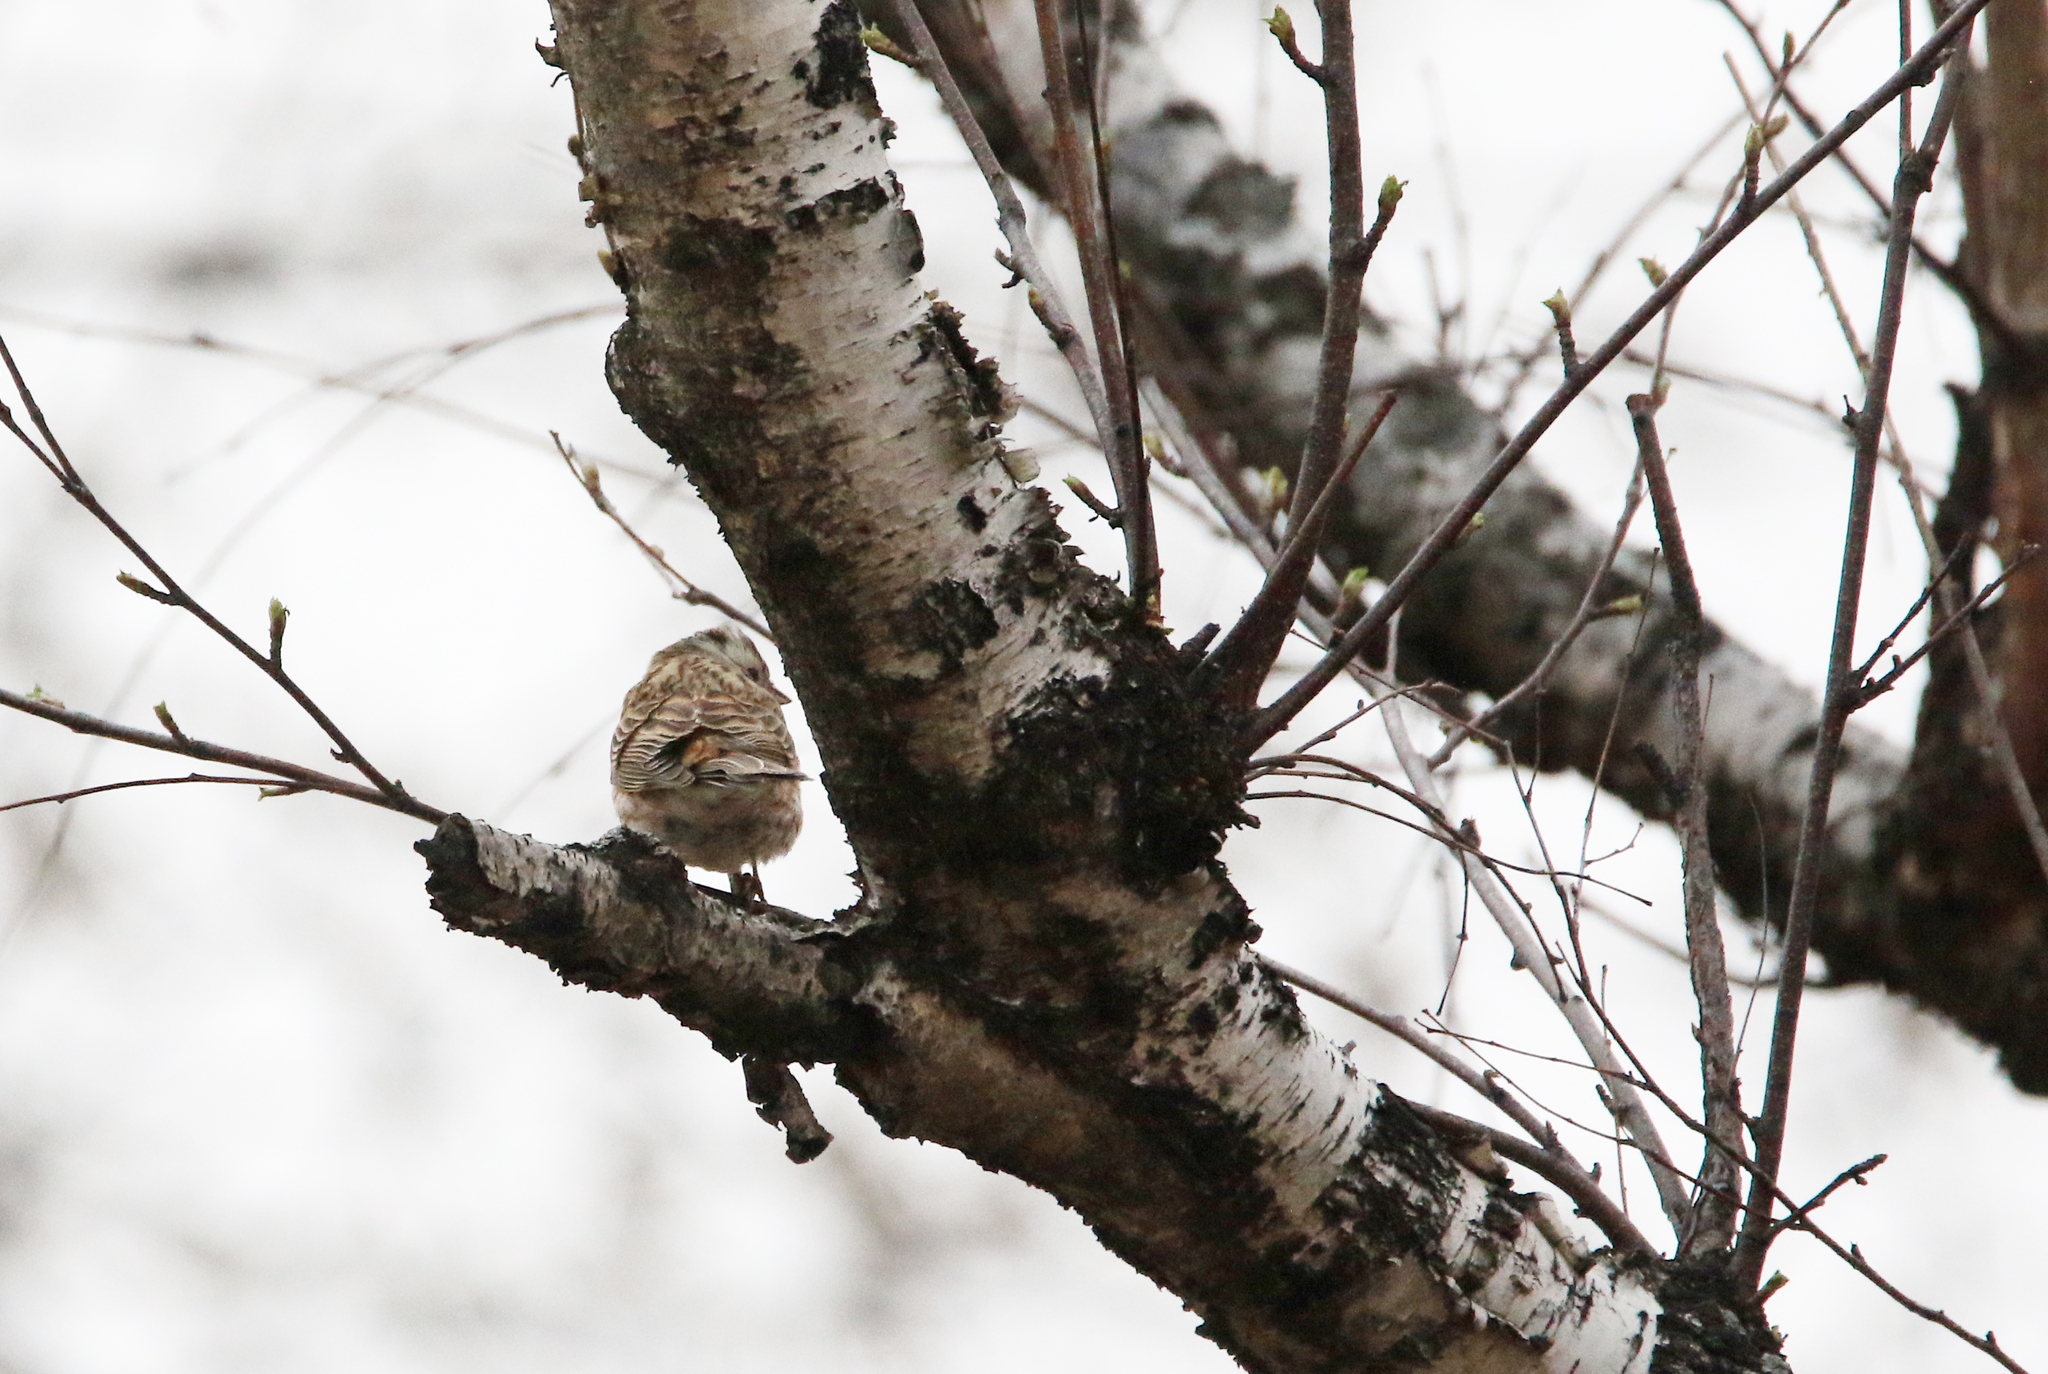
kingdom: Animalia
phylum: Chordata
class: Aves
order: Passeriformes
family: Emberizidae
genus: Emberiza
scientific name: Emberiza
